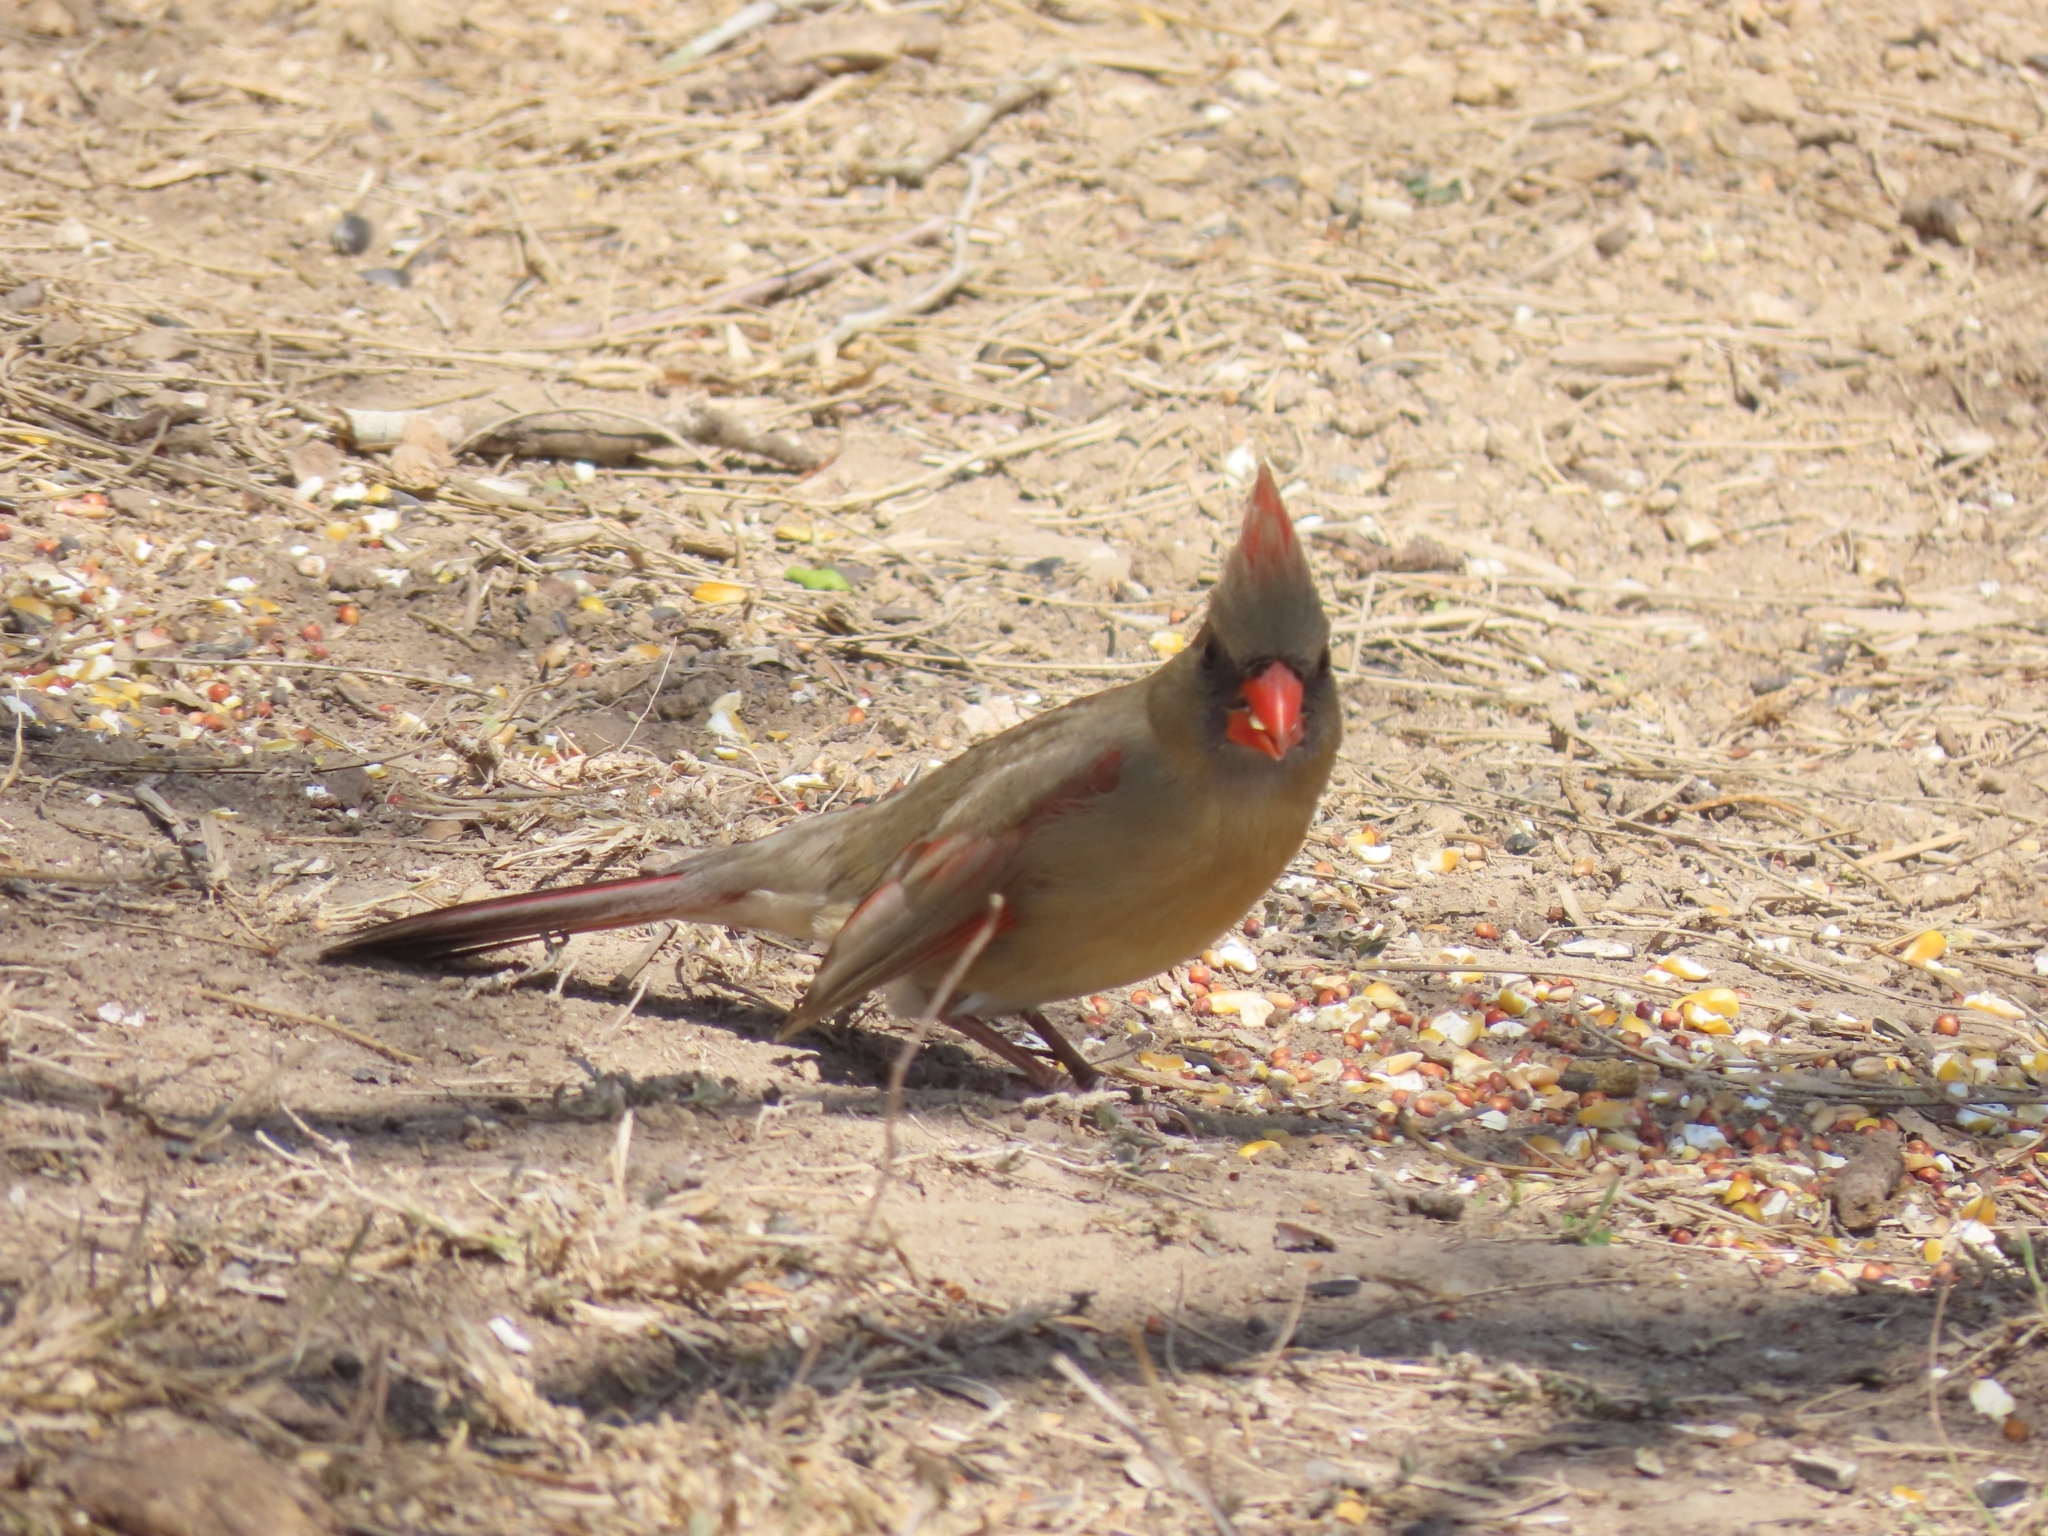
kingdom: Animalia
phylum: Chordata
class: Aves
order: Passeriformes
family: Cardinalidae
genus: Cardinalis
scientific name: Cardinalis cardinalis
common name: Northern cardinal
